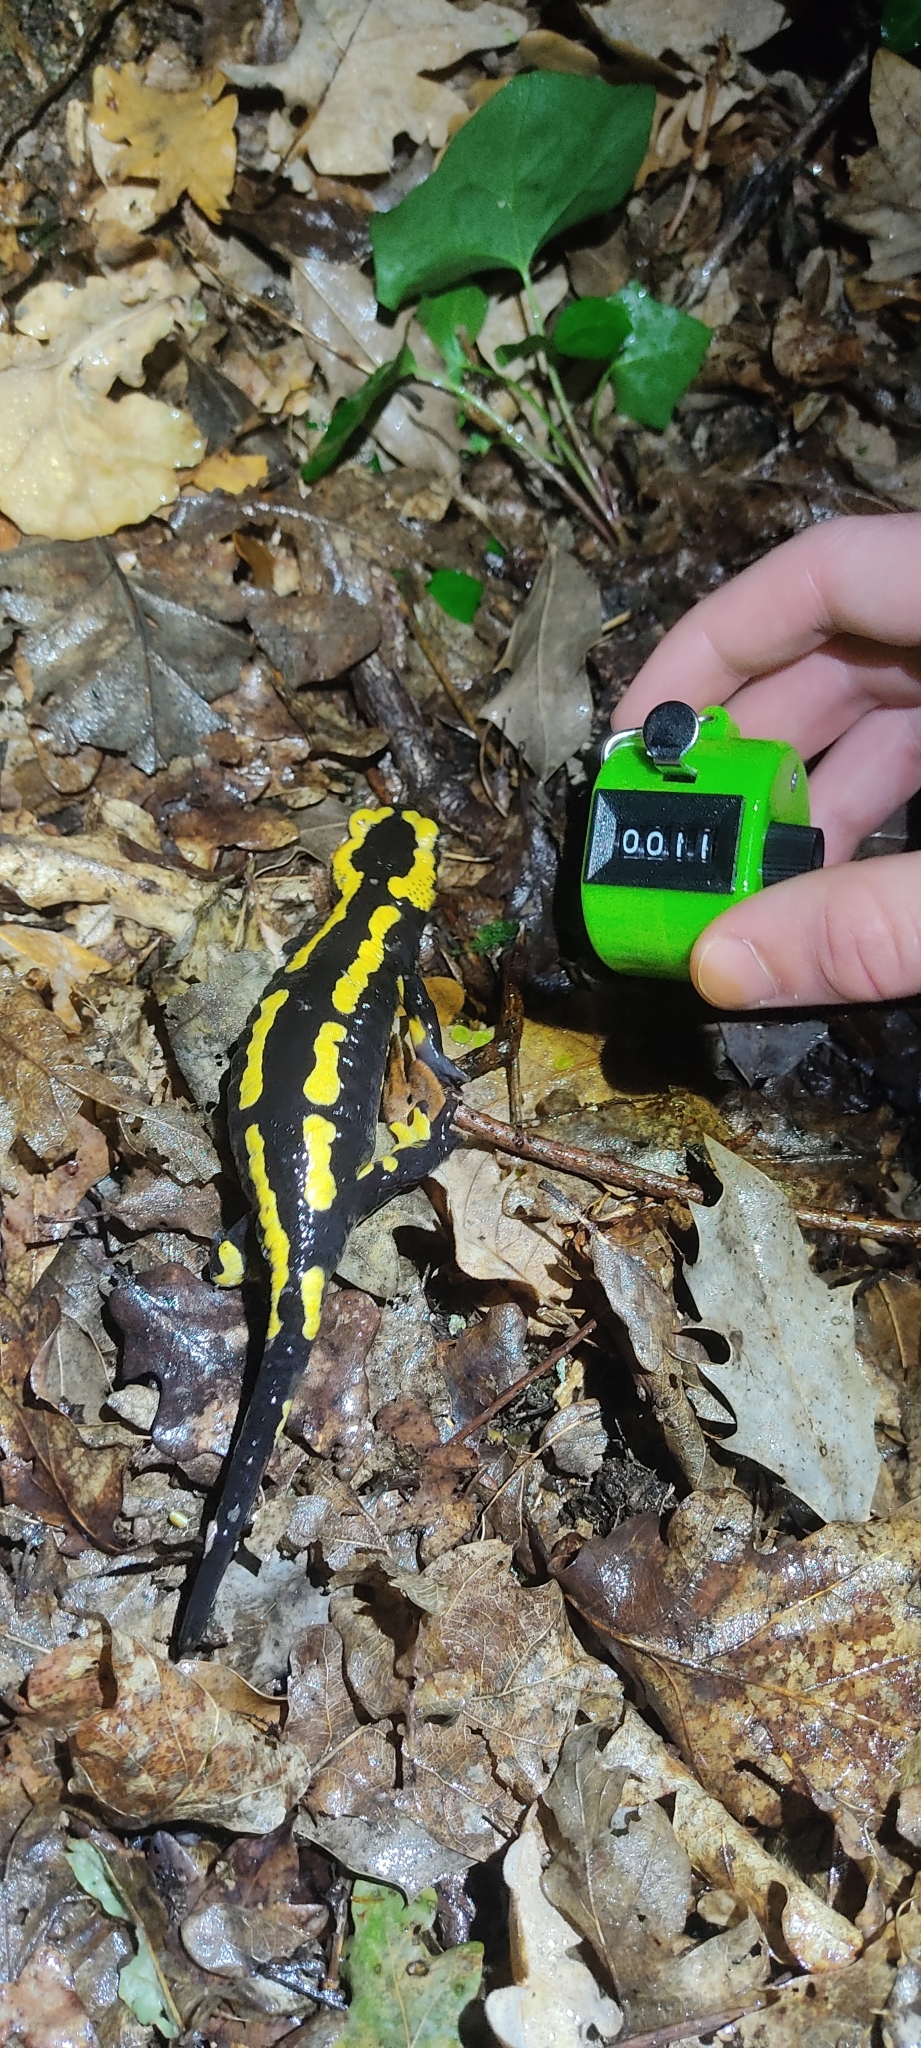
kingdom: Animalia
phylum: Chordata
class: Amphibia
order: Caudata
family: Salamandridae
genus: Salamandra
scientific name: Salamandra salamandra
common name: Fire salamander
